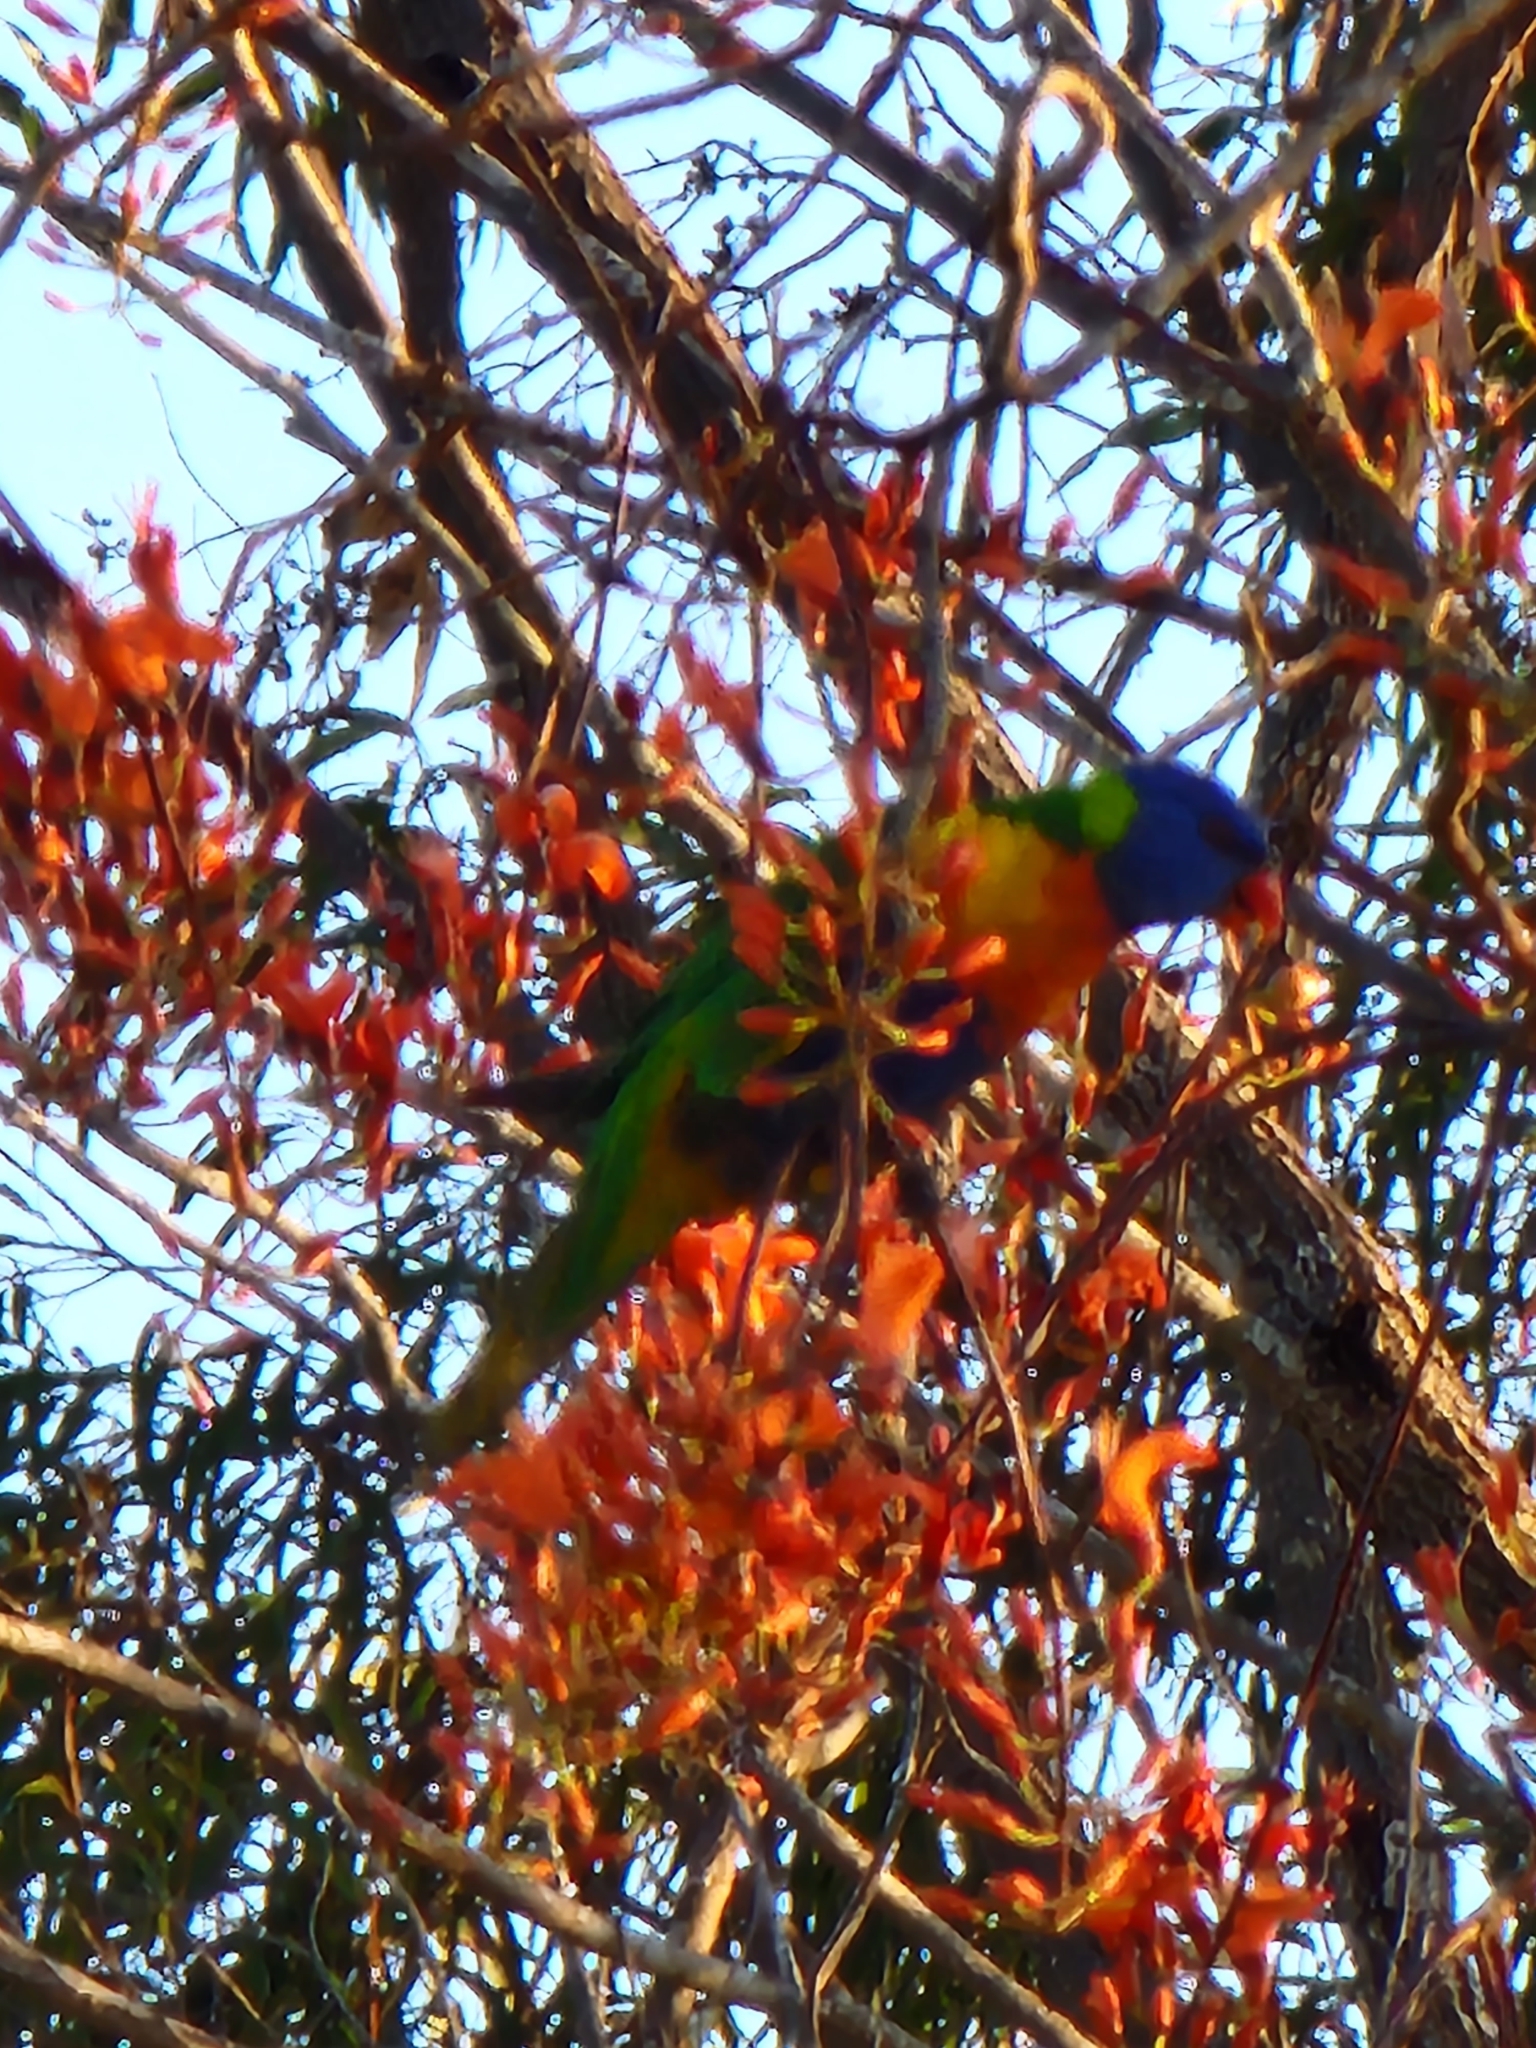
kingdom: Animalia
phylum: Chordata
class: Aves
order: Psittaciformes
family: Psittacidae
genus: Trichoglossus
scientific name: Trichoglossus haematodus
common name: Coconut lorikeet
